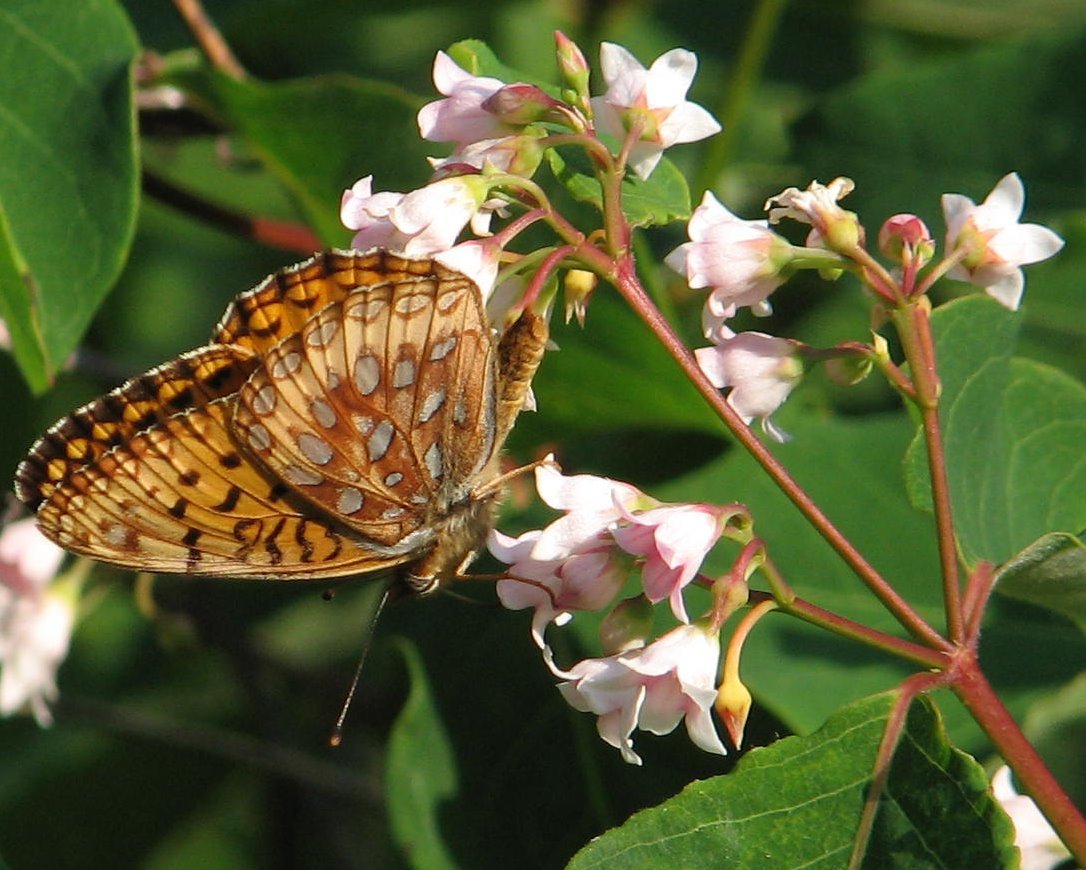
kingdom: Animalia
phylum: Arthropoda
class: Insecta
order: Lepidoptera
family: Nymphalidae
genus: Speyeria
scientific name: Speyeria atlantis
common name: Atlantis fritillary
